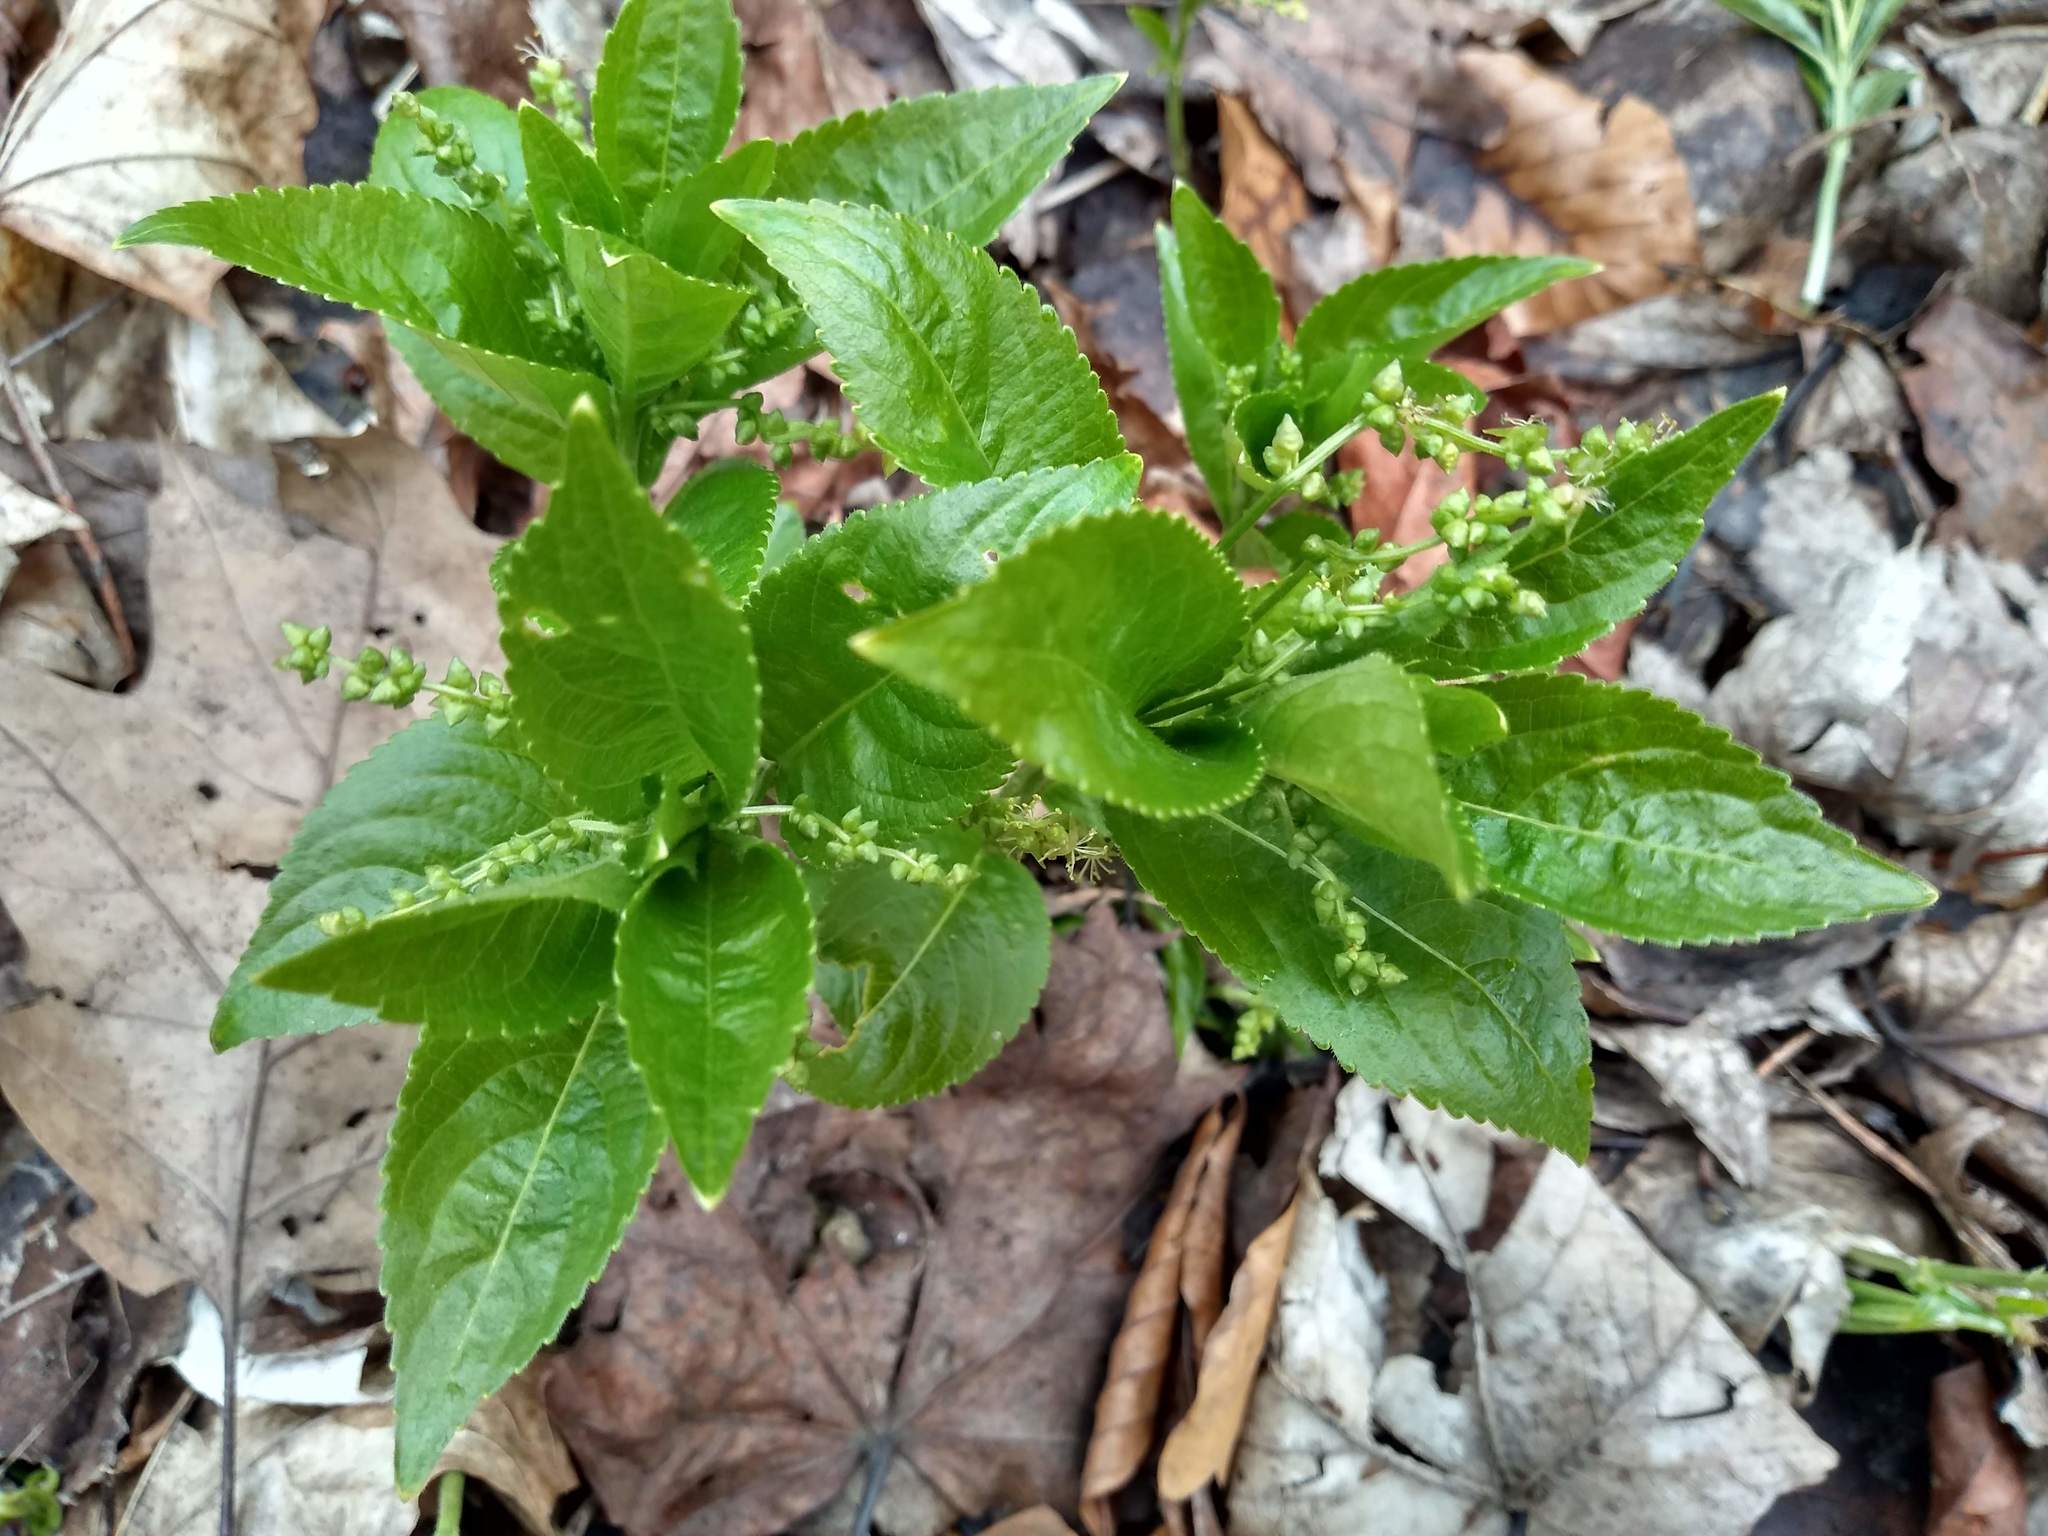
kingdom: Plantae
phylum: Tracheophyta
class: Magnoliopsida
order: Malpighiales
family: Euphorbiaceae
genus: Mercurialis
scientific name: Mercurialis perennis
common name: Dog mercury
